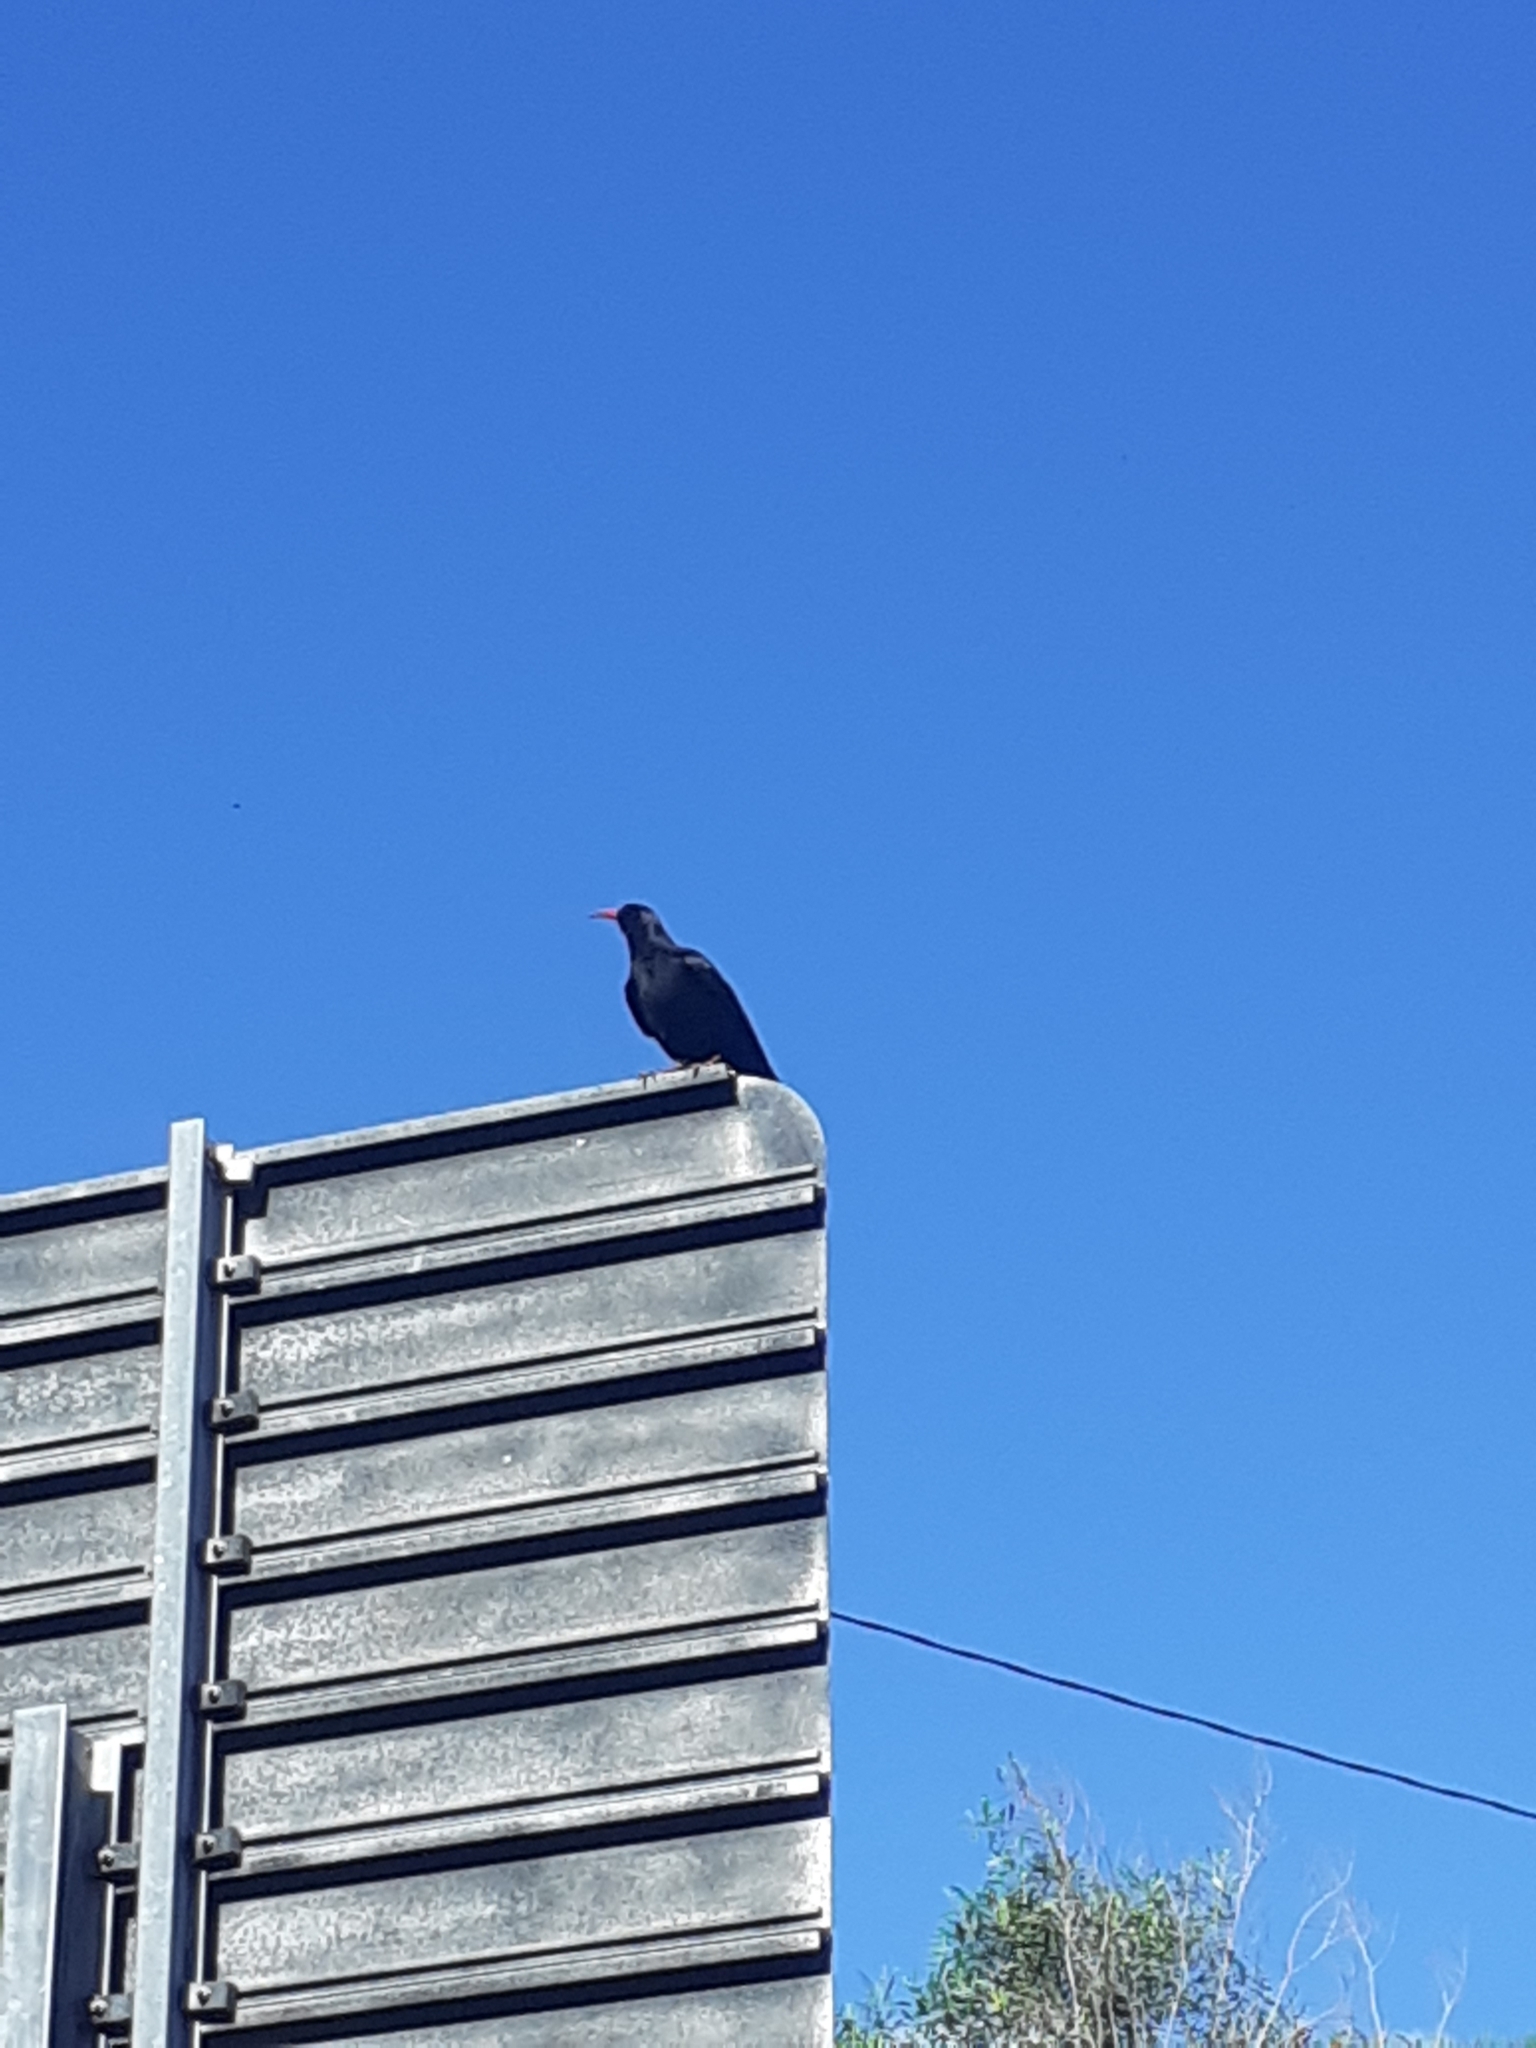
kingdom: Animalia
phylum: Chordata
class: Aves
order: Passeriformes
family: Corvidae
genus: Pyrrhocorax
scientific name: Pyrrhocorax pyrrhocorax
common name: Red-billed chough
